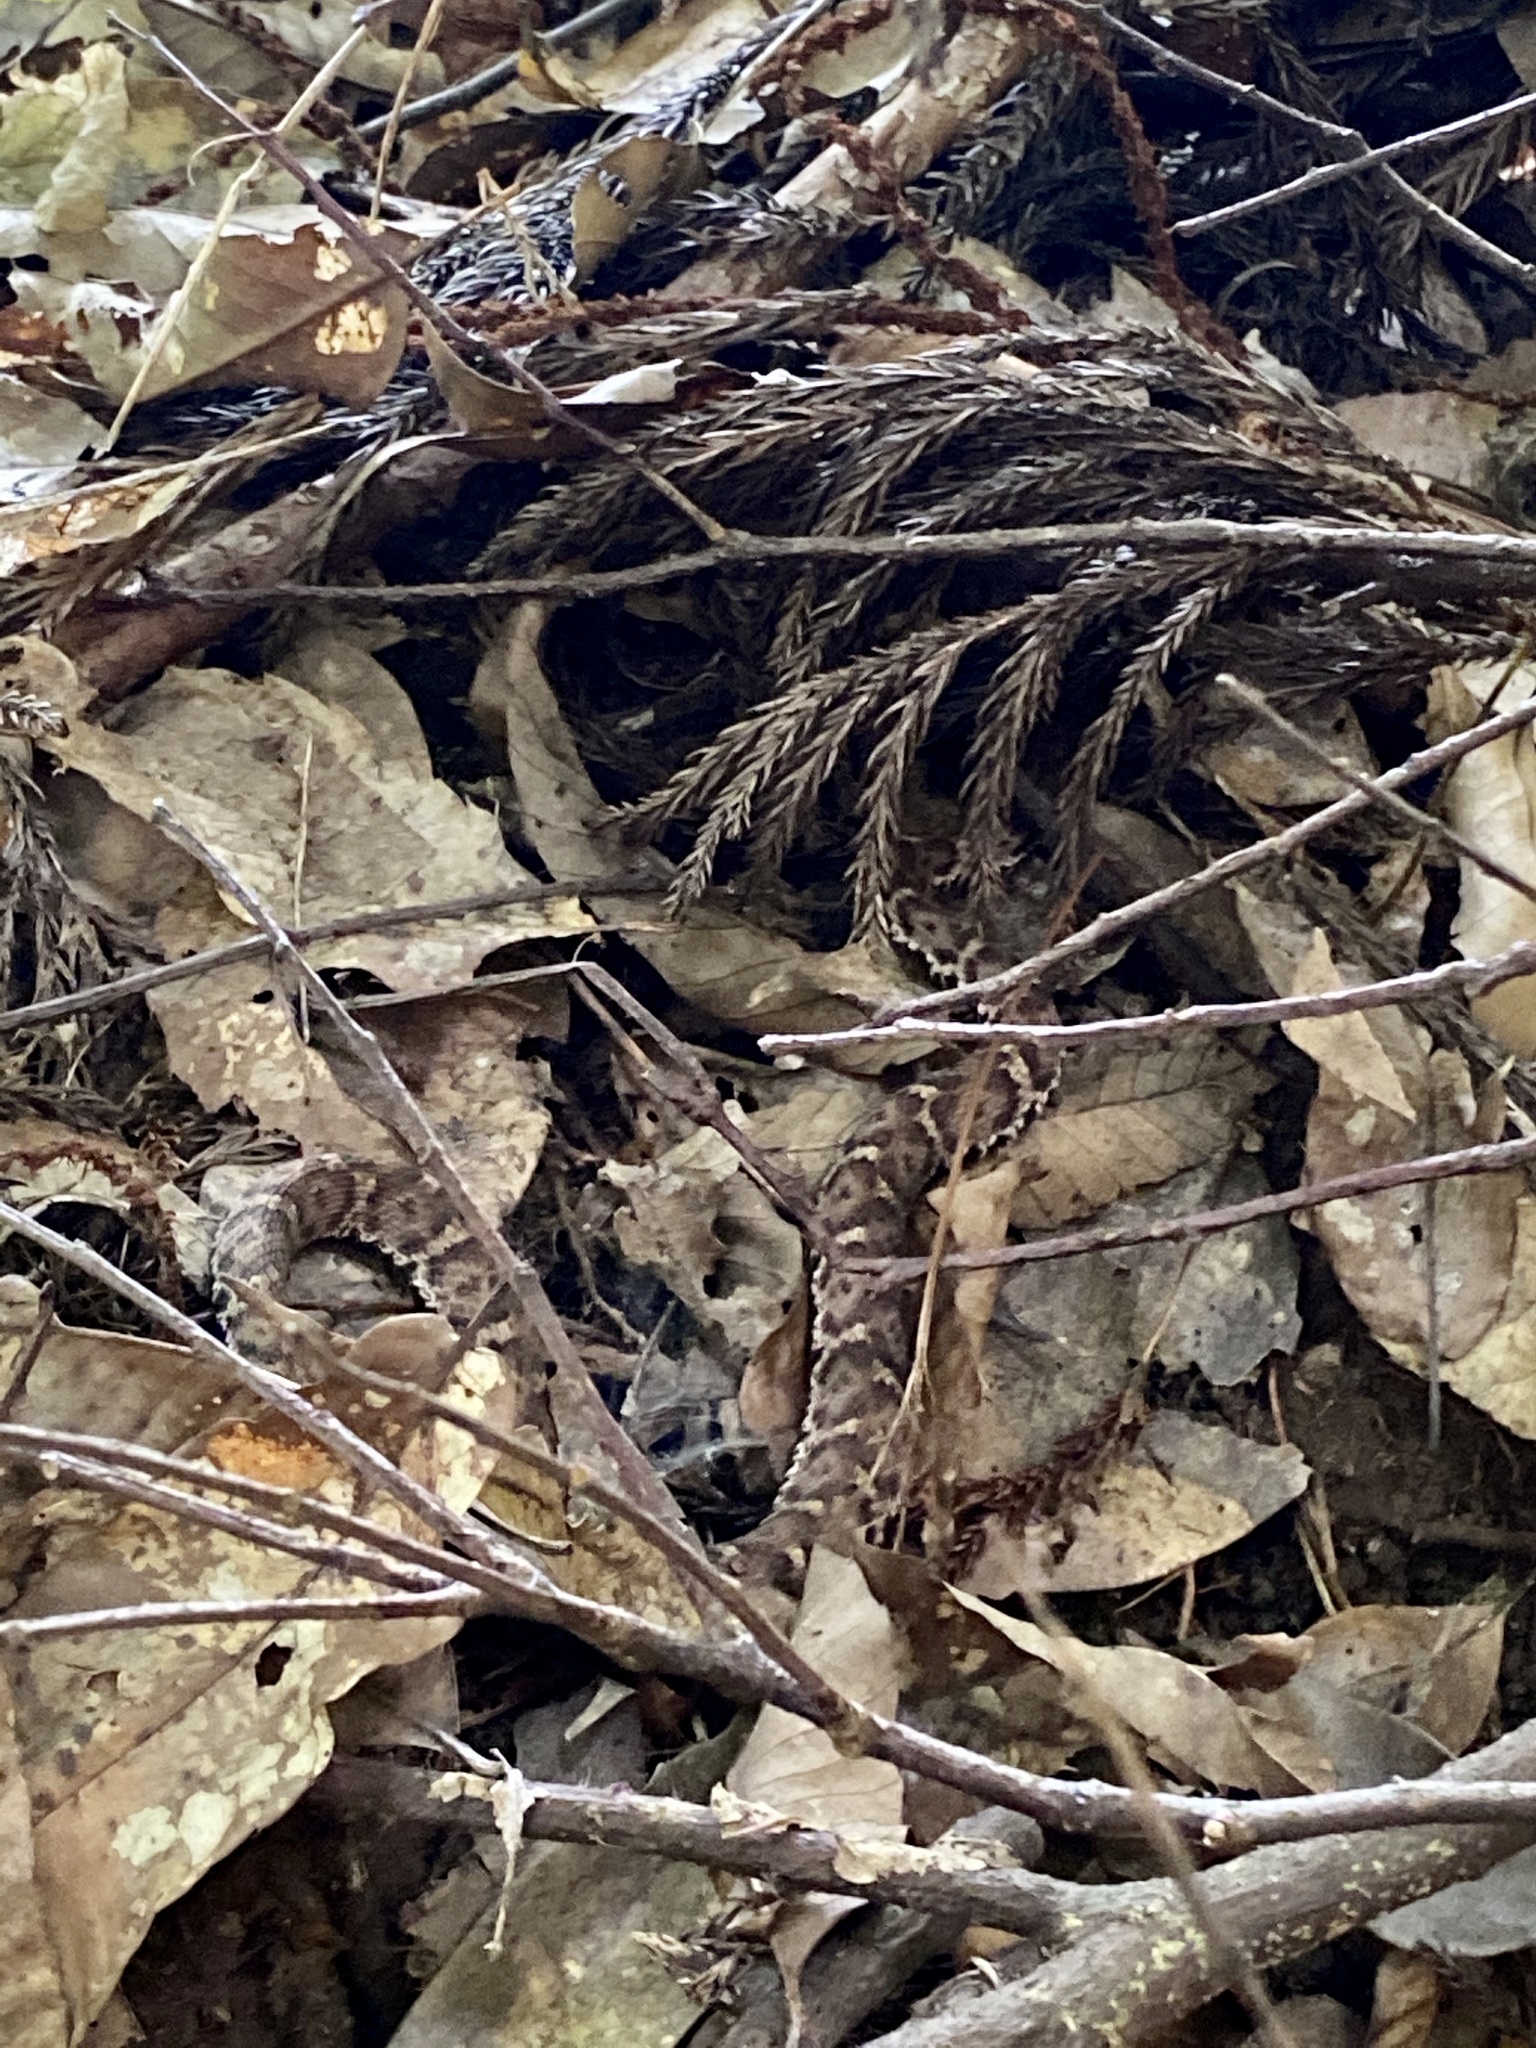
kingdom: Animalia
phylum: Chordata
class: Squamata
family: Viperidae
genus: Gloydius
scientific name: Gloydius blomhoffii
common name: Mamushi
